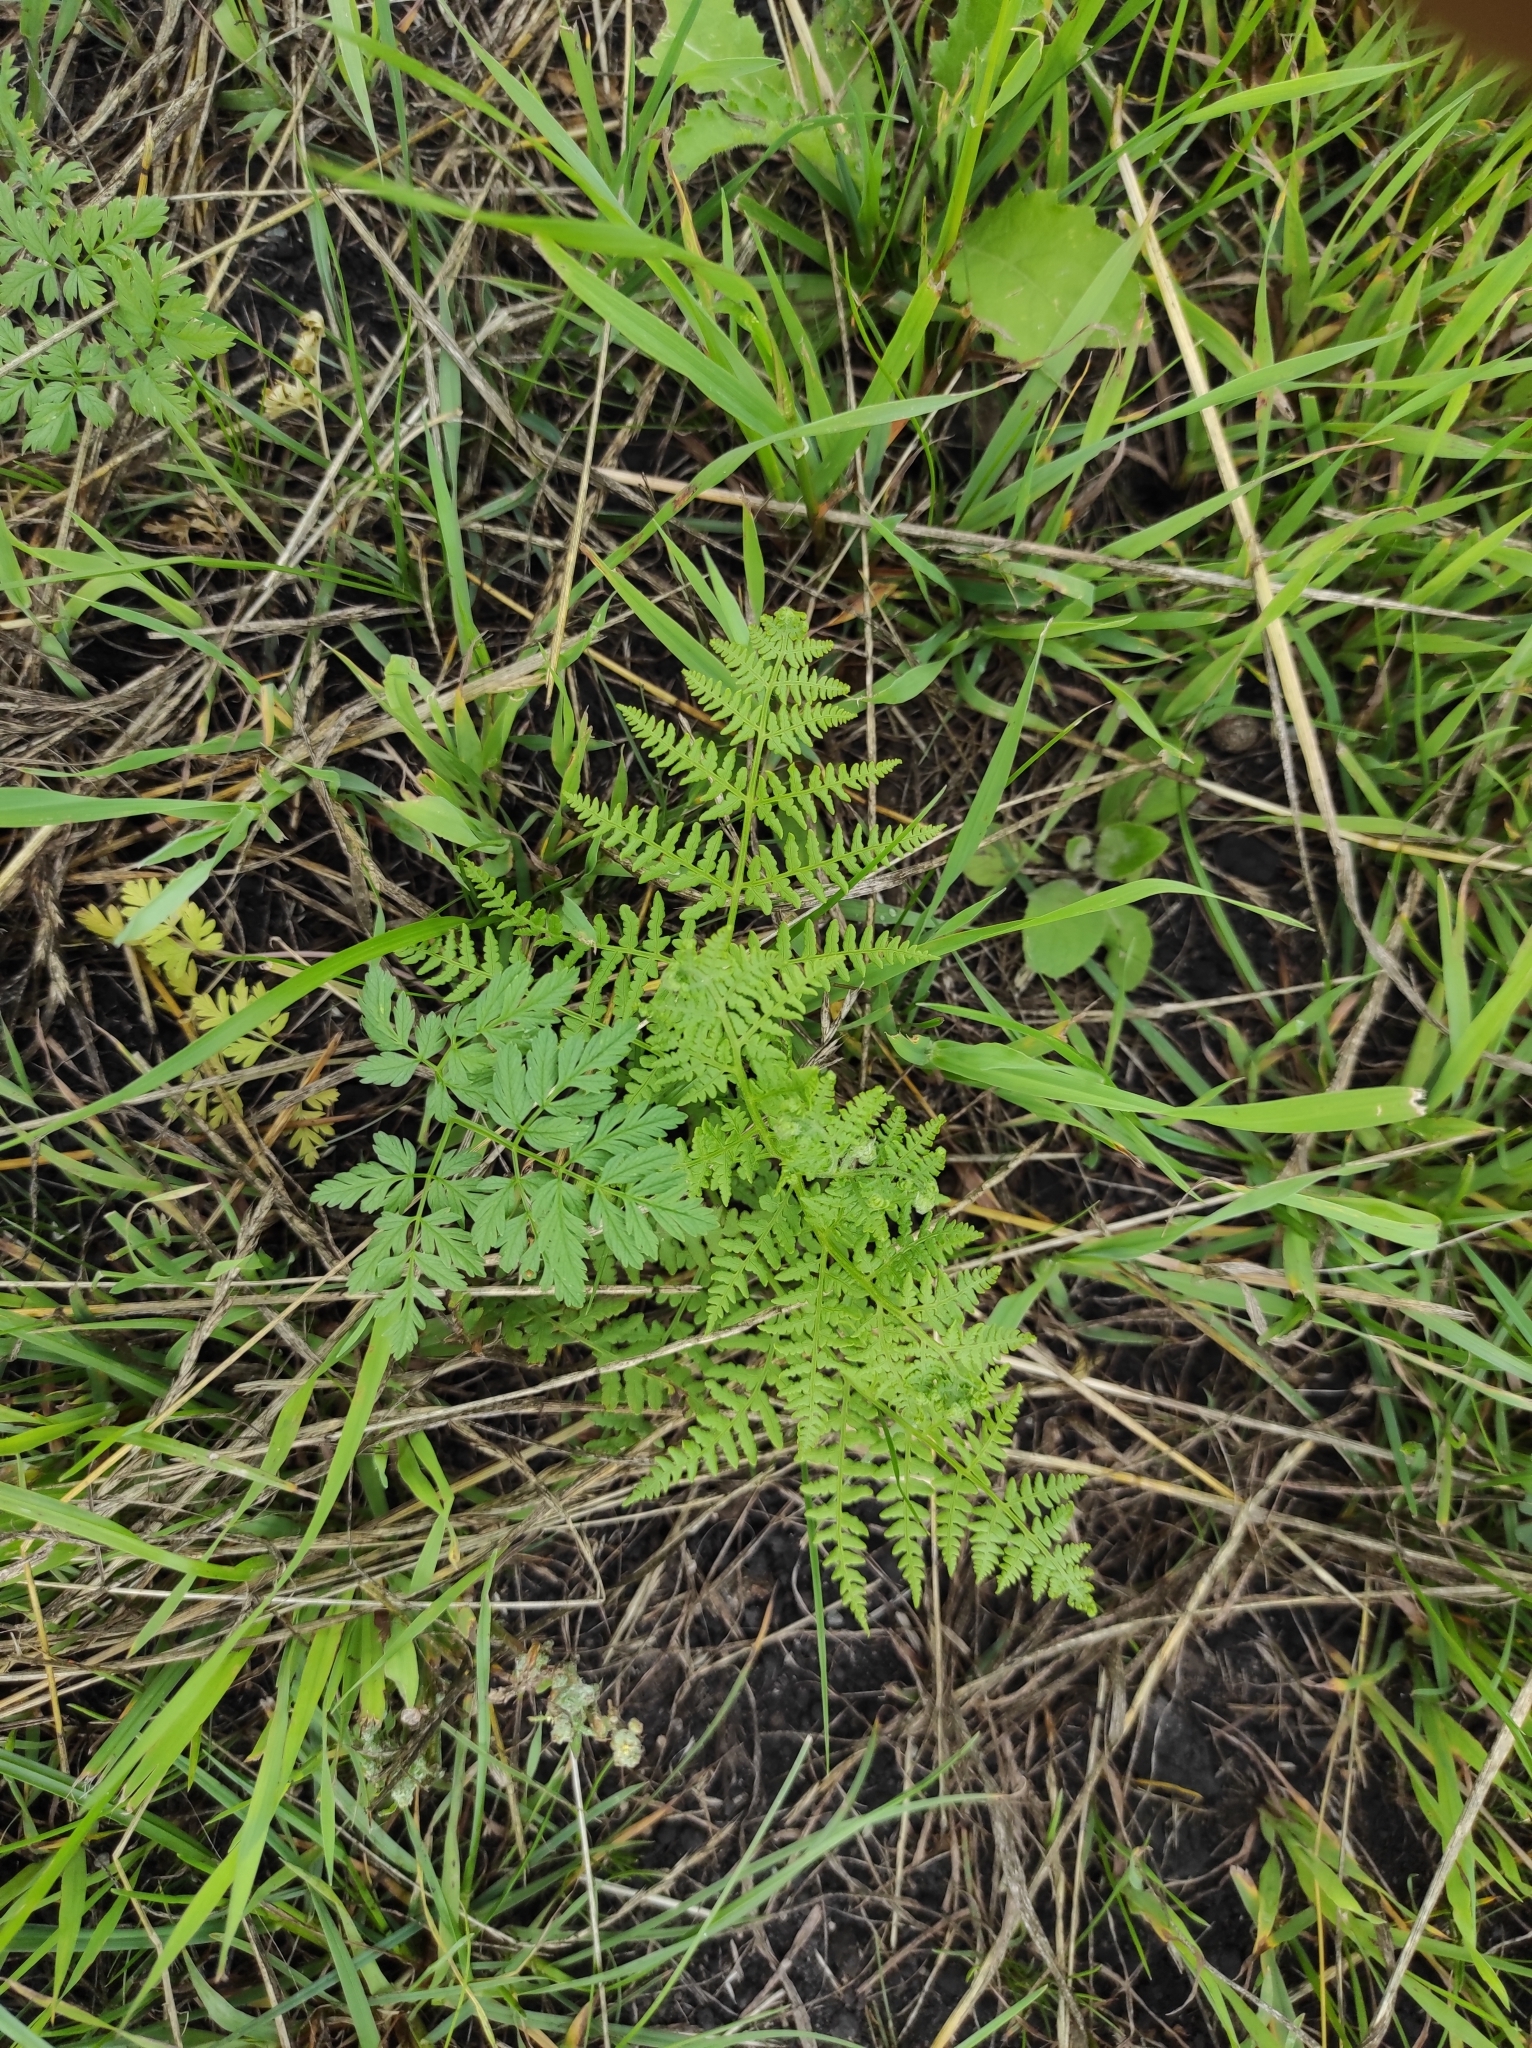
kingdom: Plantae
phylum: Tracheophyta
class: Polypodiopsida
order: Polypodiales
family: Dennstaedtiaceae
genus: Pteridium
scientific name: Pteridium aquilinum
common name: Bracken
